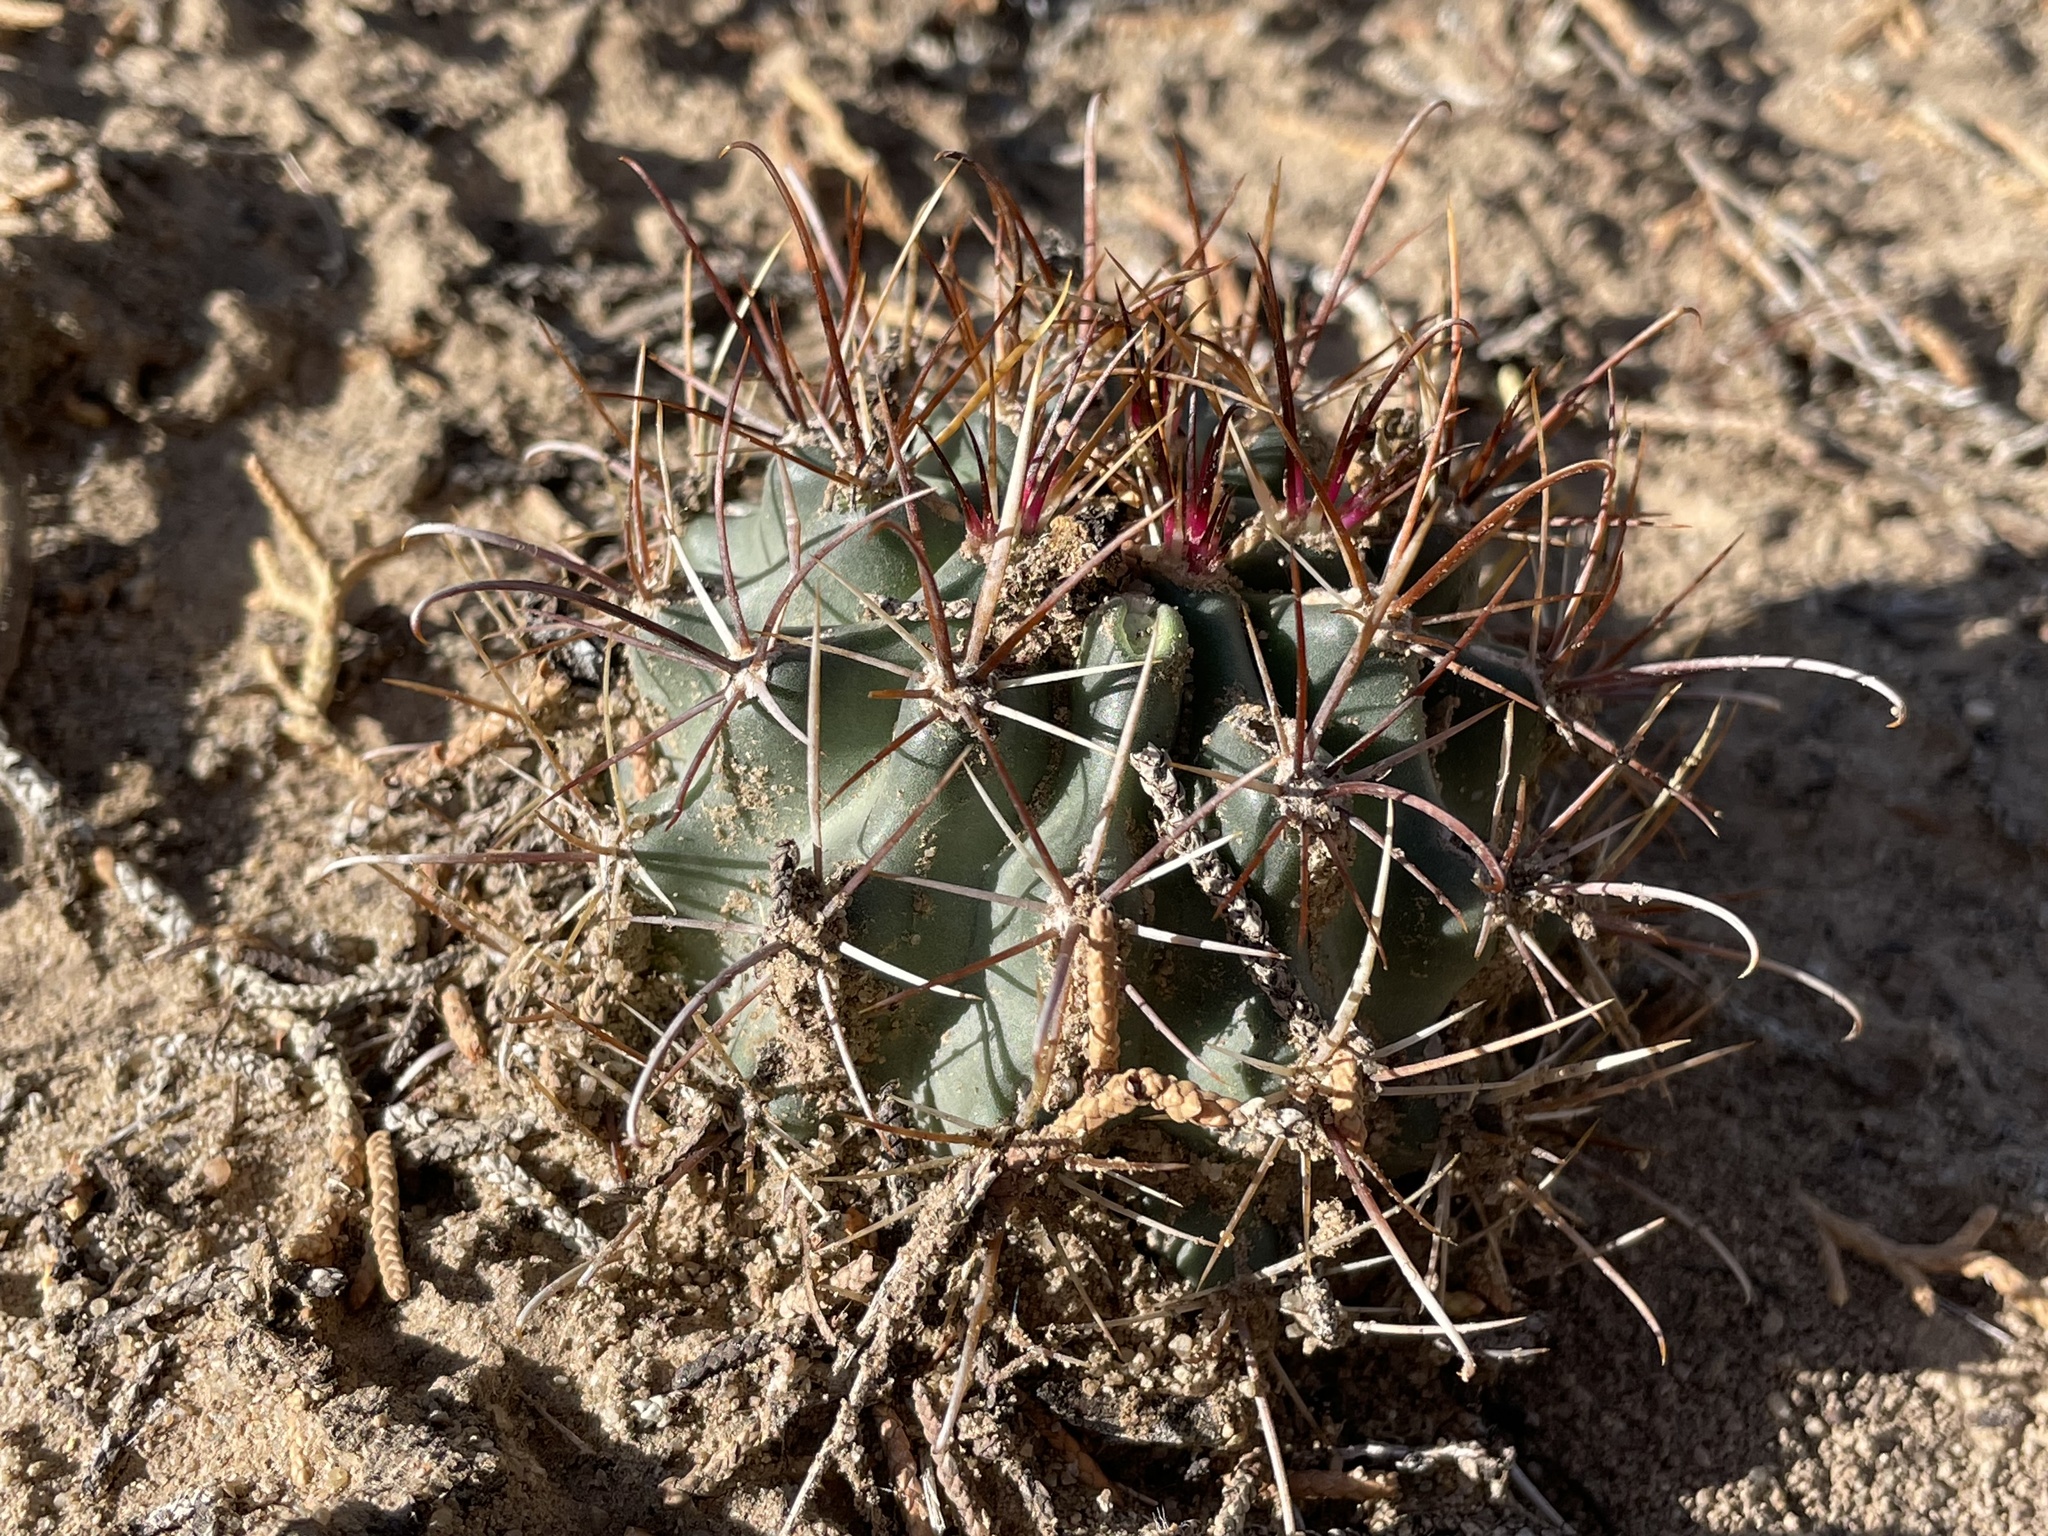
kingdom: Plantae
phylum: Tracheophyta
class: Magnoliopsida
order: Caryophyllales
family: Cactaceae
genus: Sclerocactus
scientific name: Sclerocactus cloverae
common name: Clover's eagle-claw cactus
